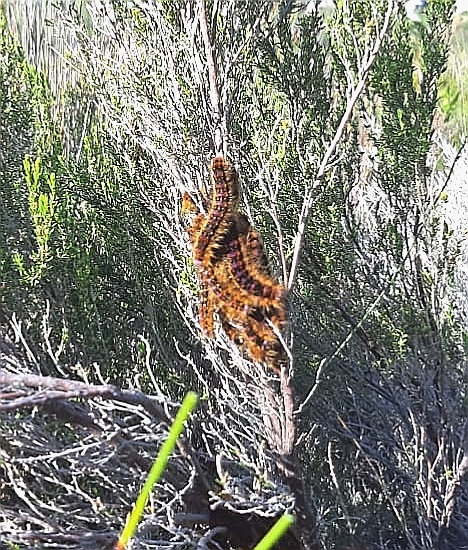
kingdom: Animalia
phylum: Arthropoda
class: Insecta
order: Lepidoptera
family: Lasiocampidae
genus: Eutricha
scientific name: Eutricha bifascia
